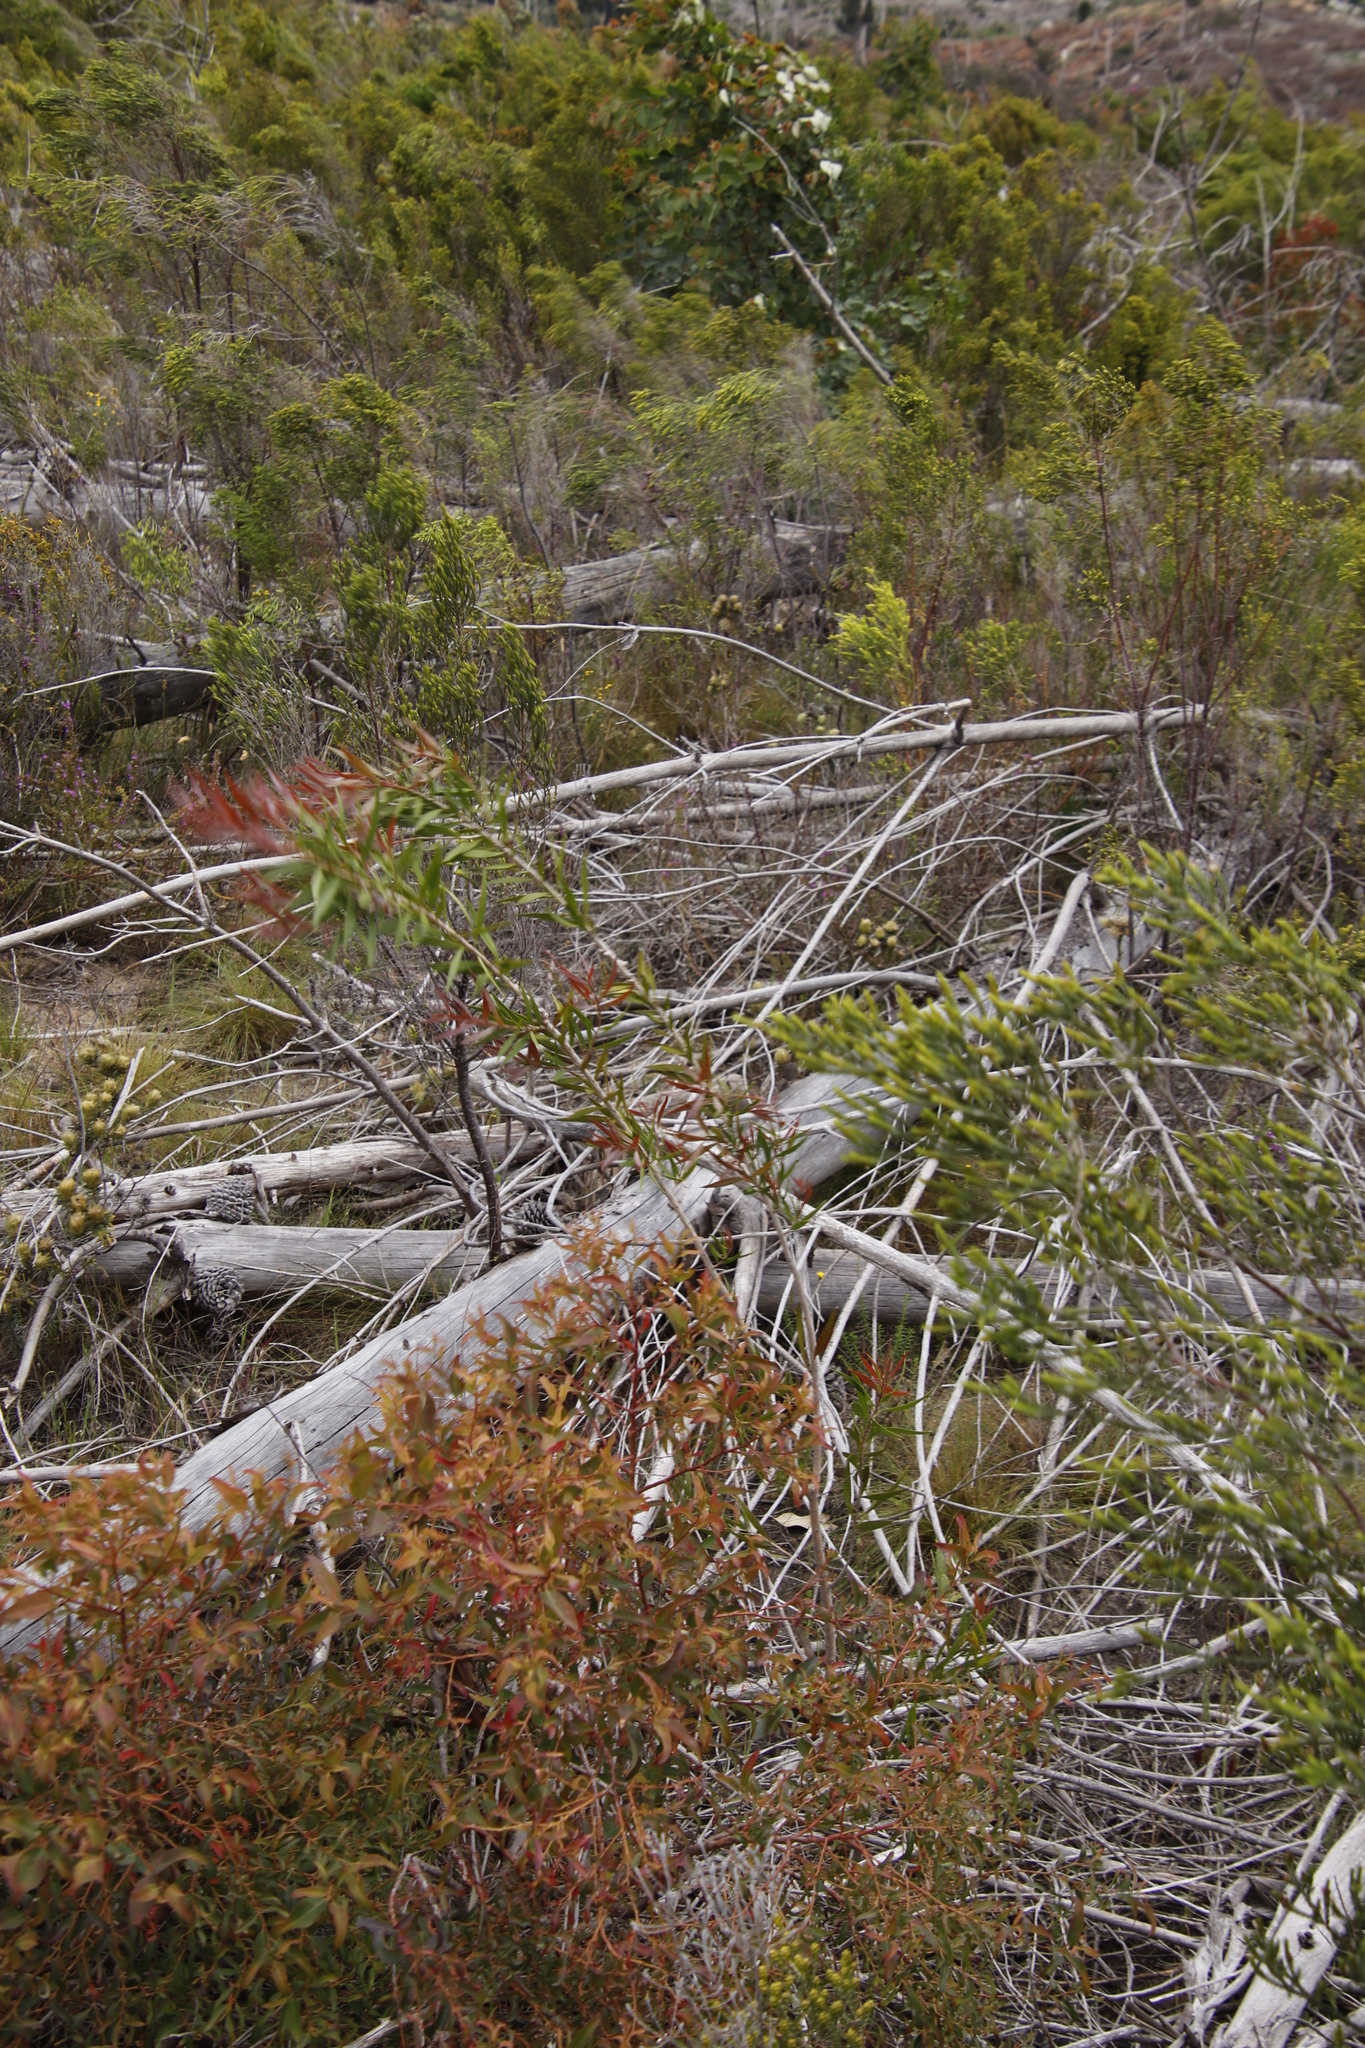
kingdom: Plantae
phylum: Tracheophyta
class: Magnoliopsida
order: Myrtales
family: Myrtaceae
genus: Callistemon
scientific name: Callistemon salignus
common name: White bottlebrush
